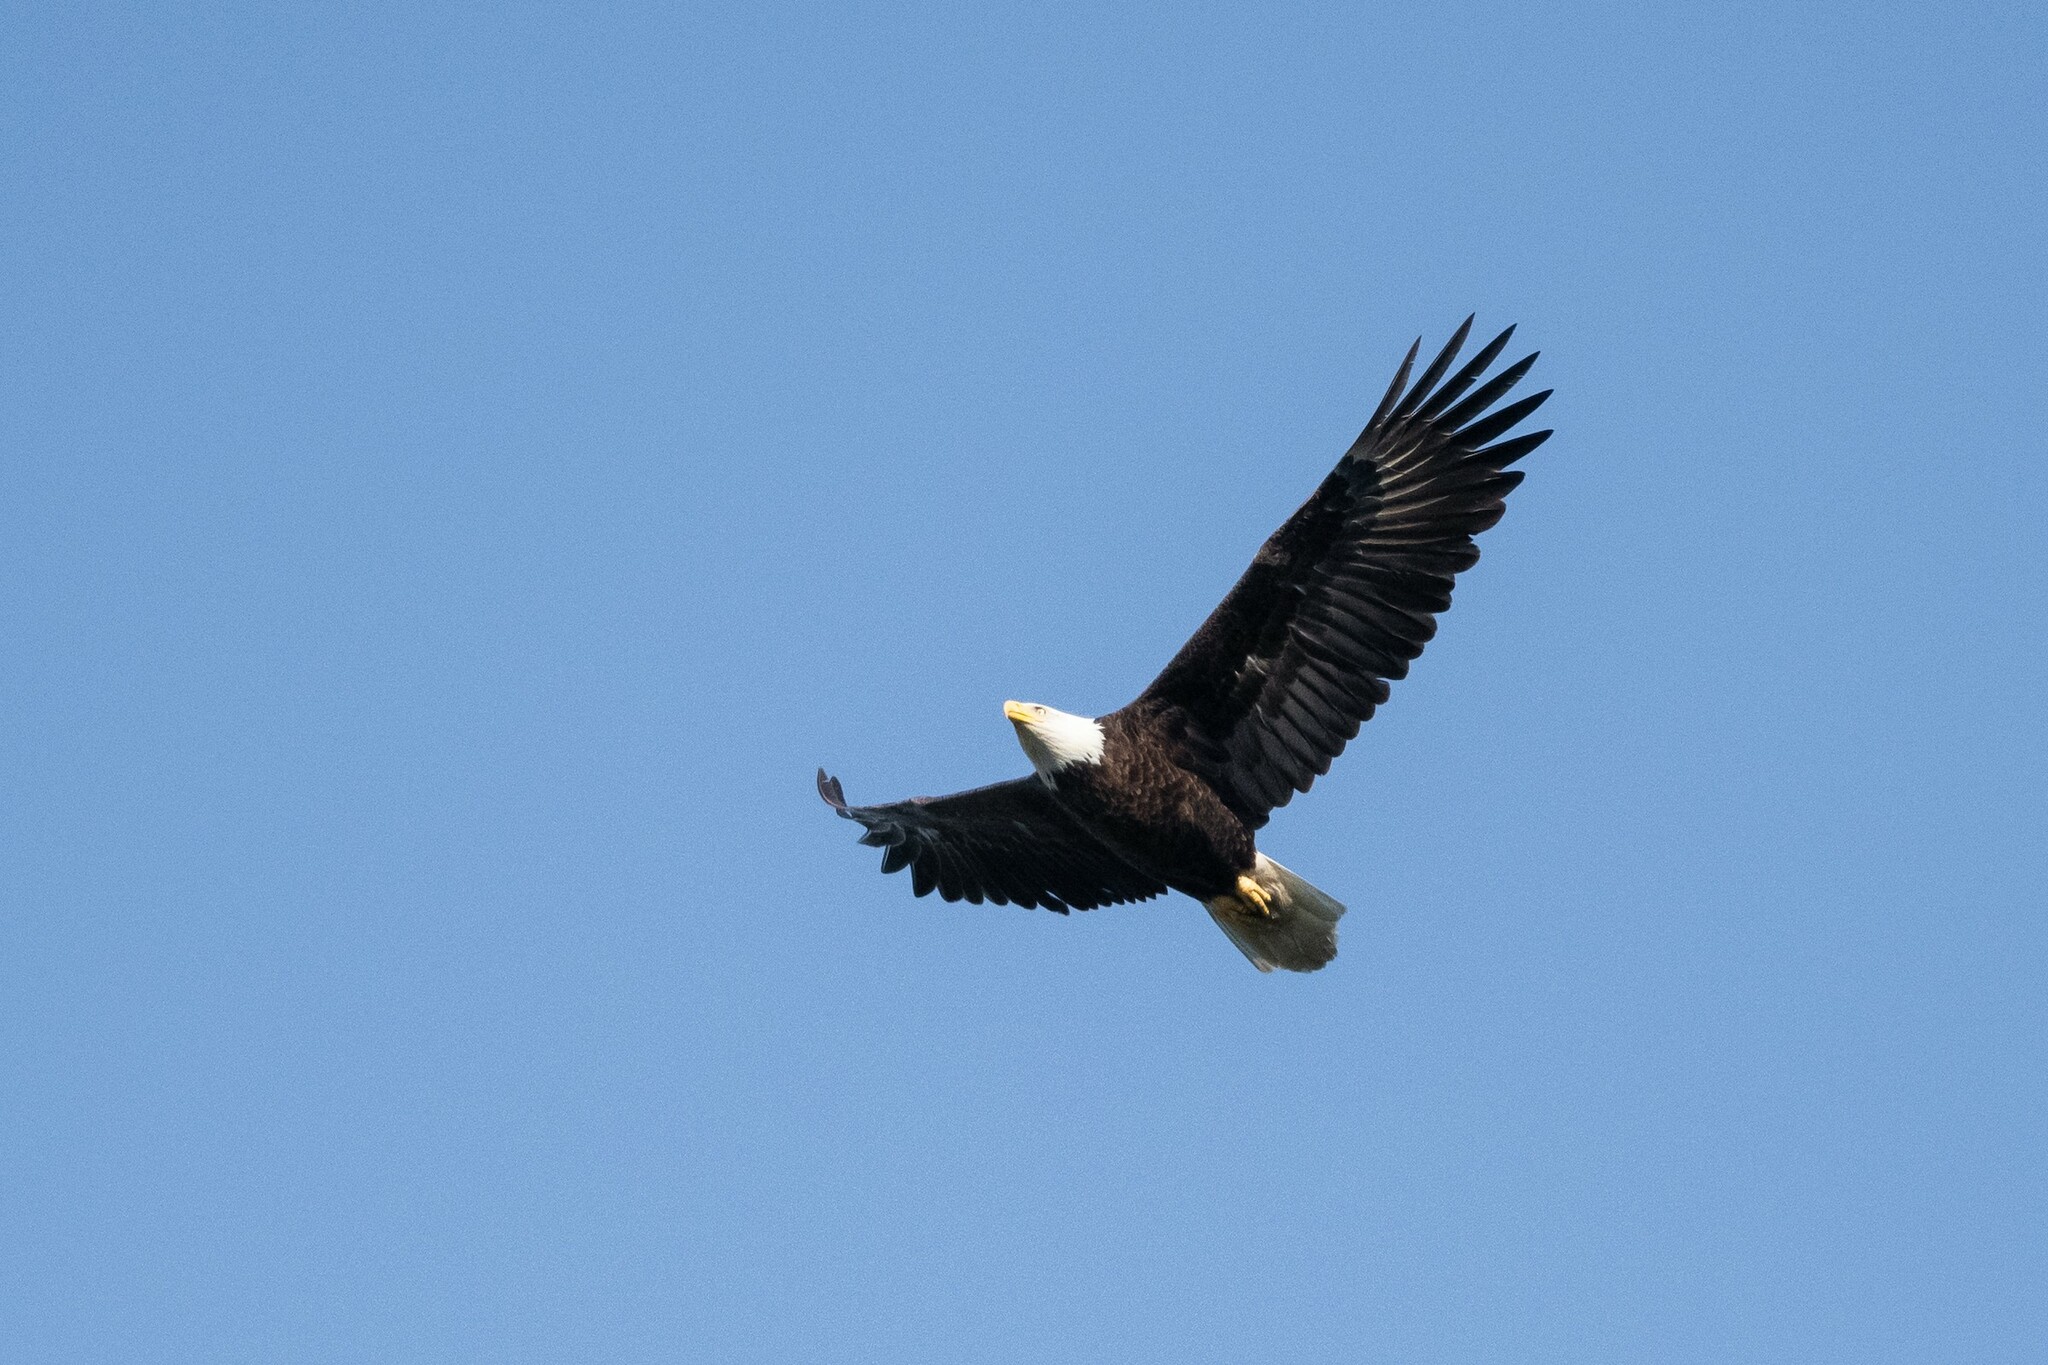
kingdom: Animalia
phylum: Chordata
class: Aves
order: Accipitriformes
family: Accipitridae
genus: Haliaeetus
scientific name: Haliaeetus leucocephalus
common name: Bald eagle
